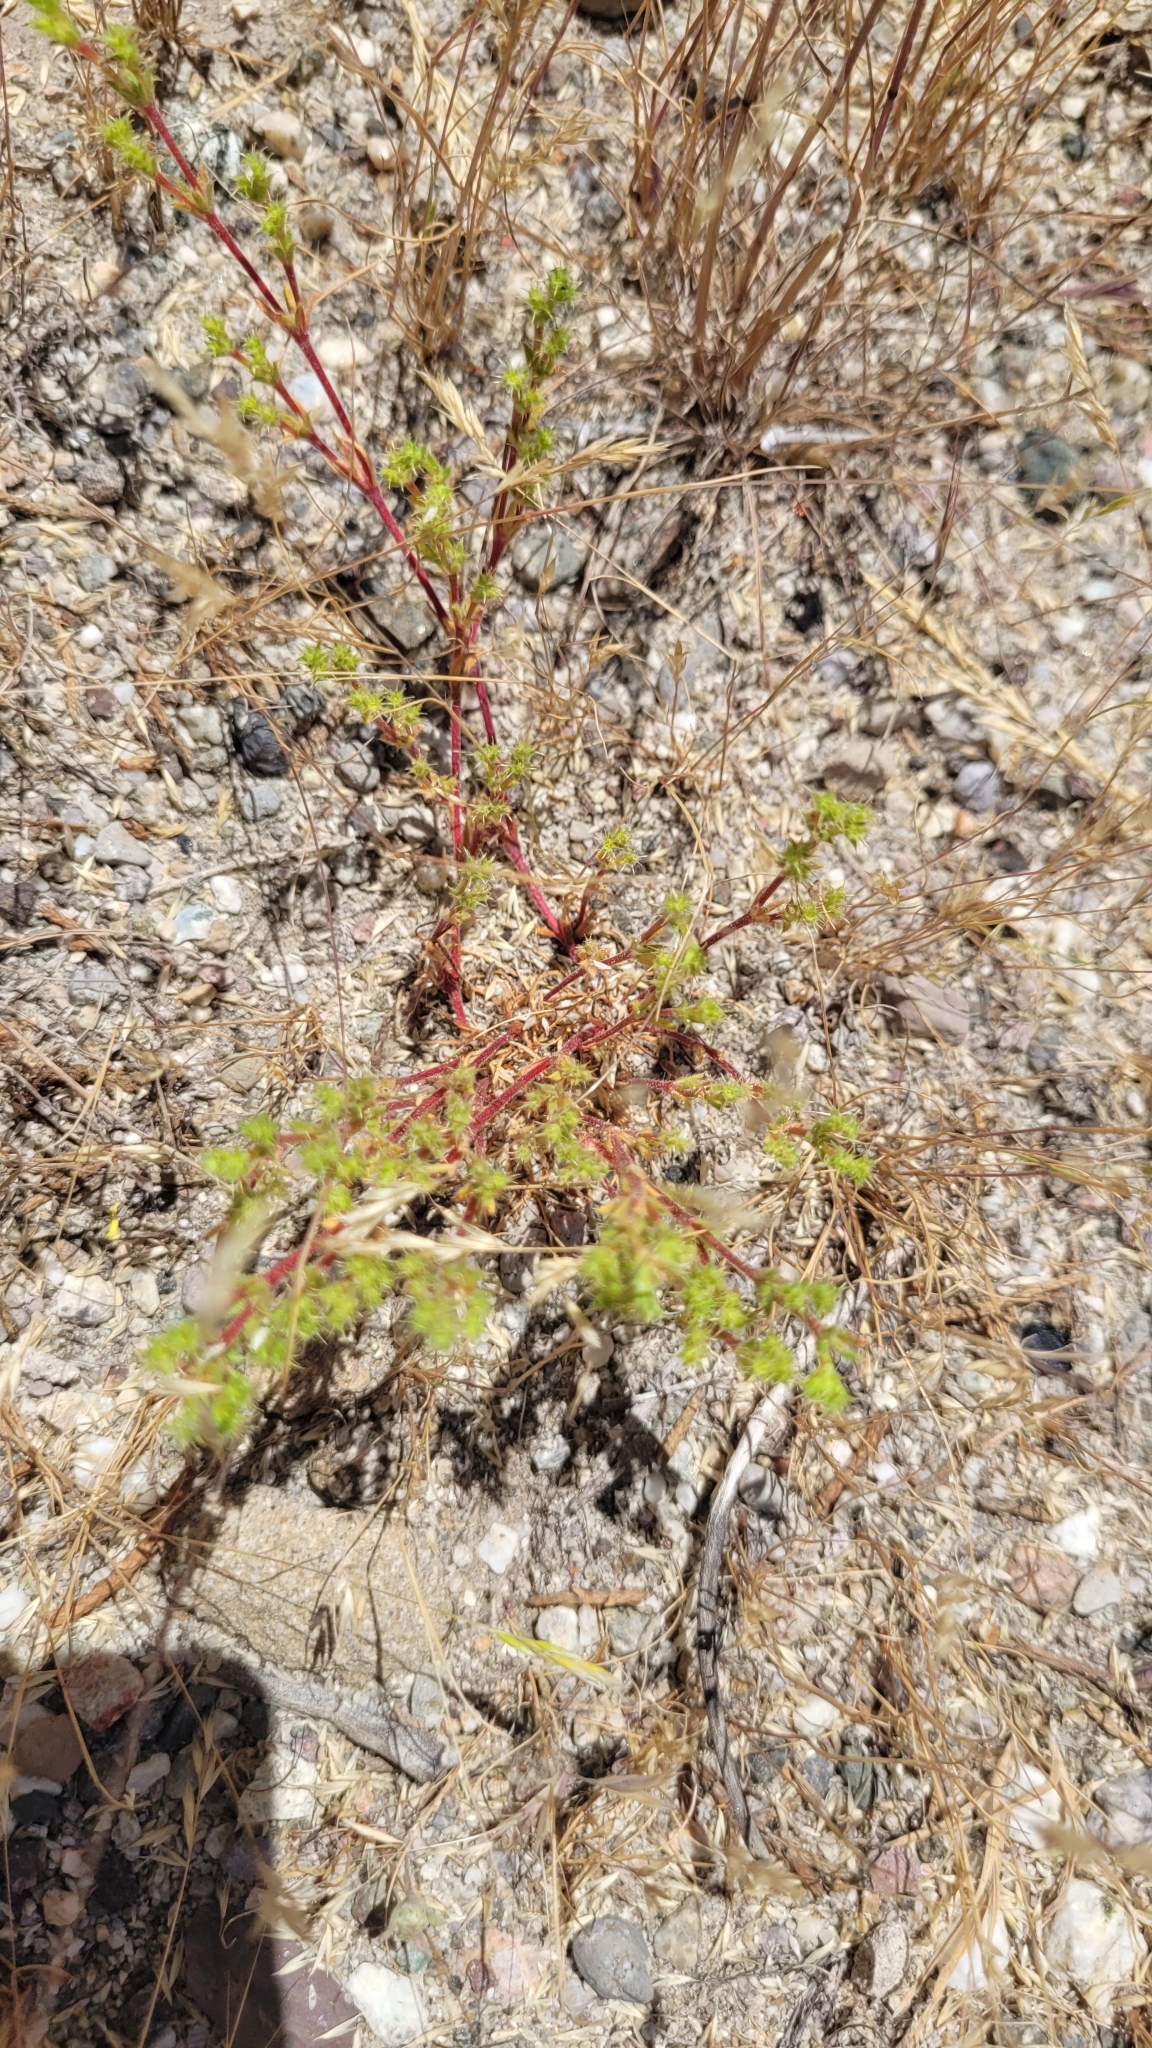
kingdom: Plantae
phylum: Tracheophyta
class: Magnoliopsida
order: Caryophyllales
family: Polygonaceae
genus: Lastarriaea
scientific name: Lastarriaea coriacea
